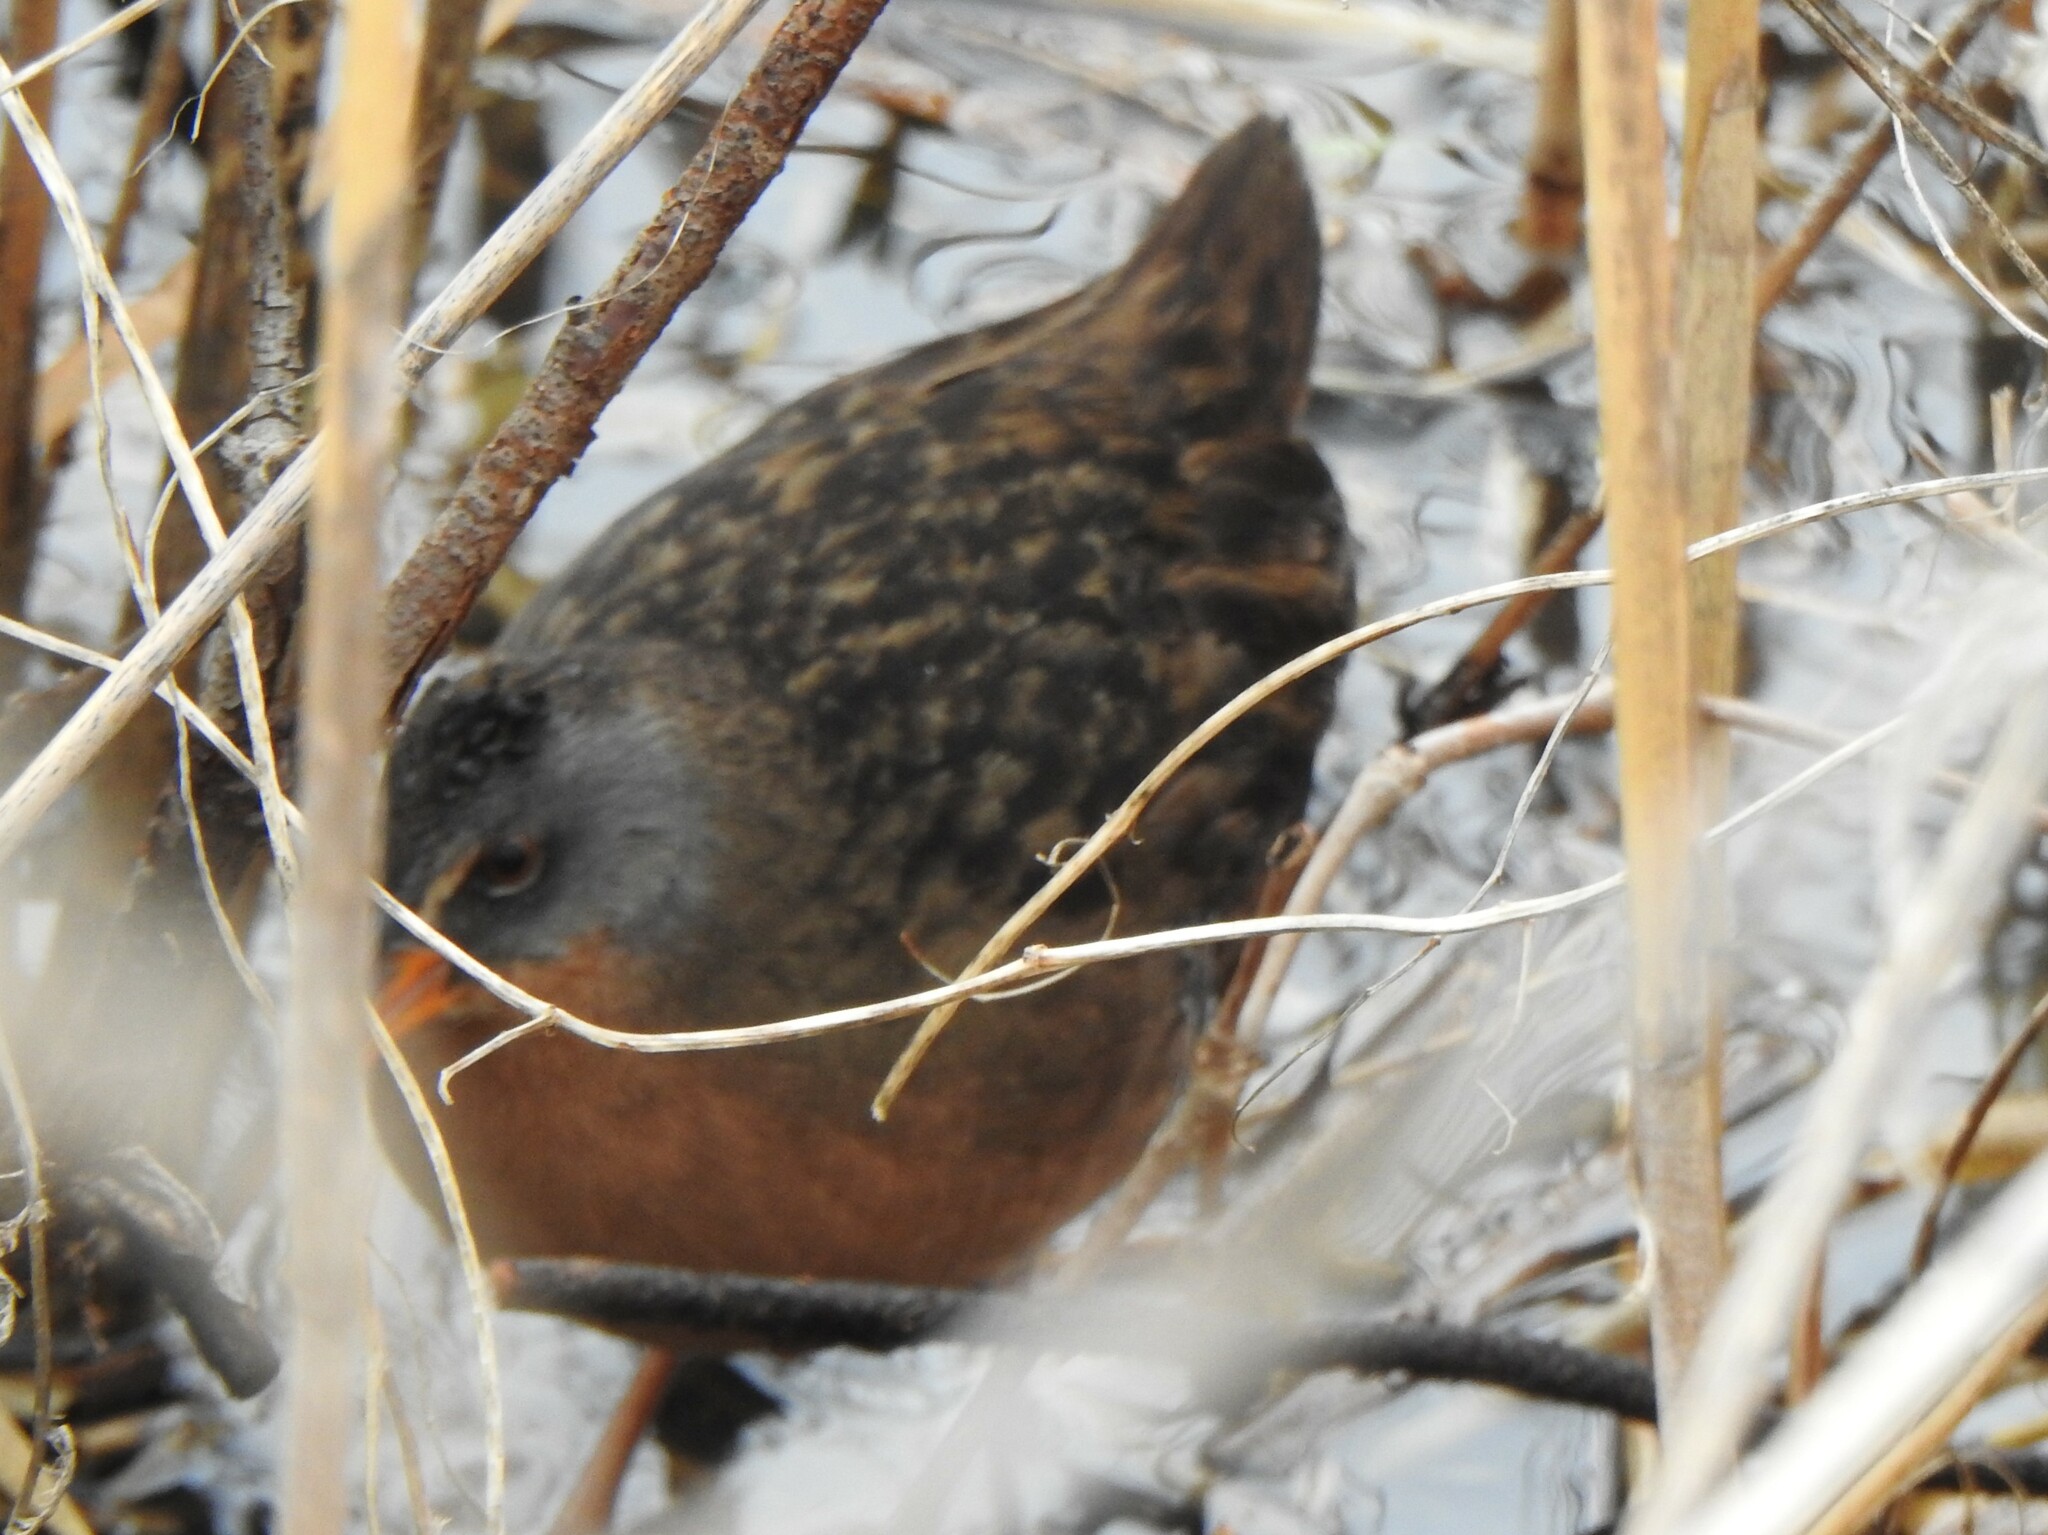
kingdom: Animalia
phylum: Chordata
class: Aves
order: Gruiformes
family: Rallidae
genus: Rallus
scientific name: Rallus limicola
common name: Virginia rail
